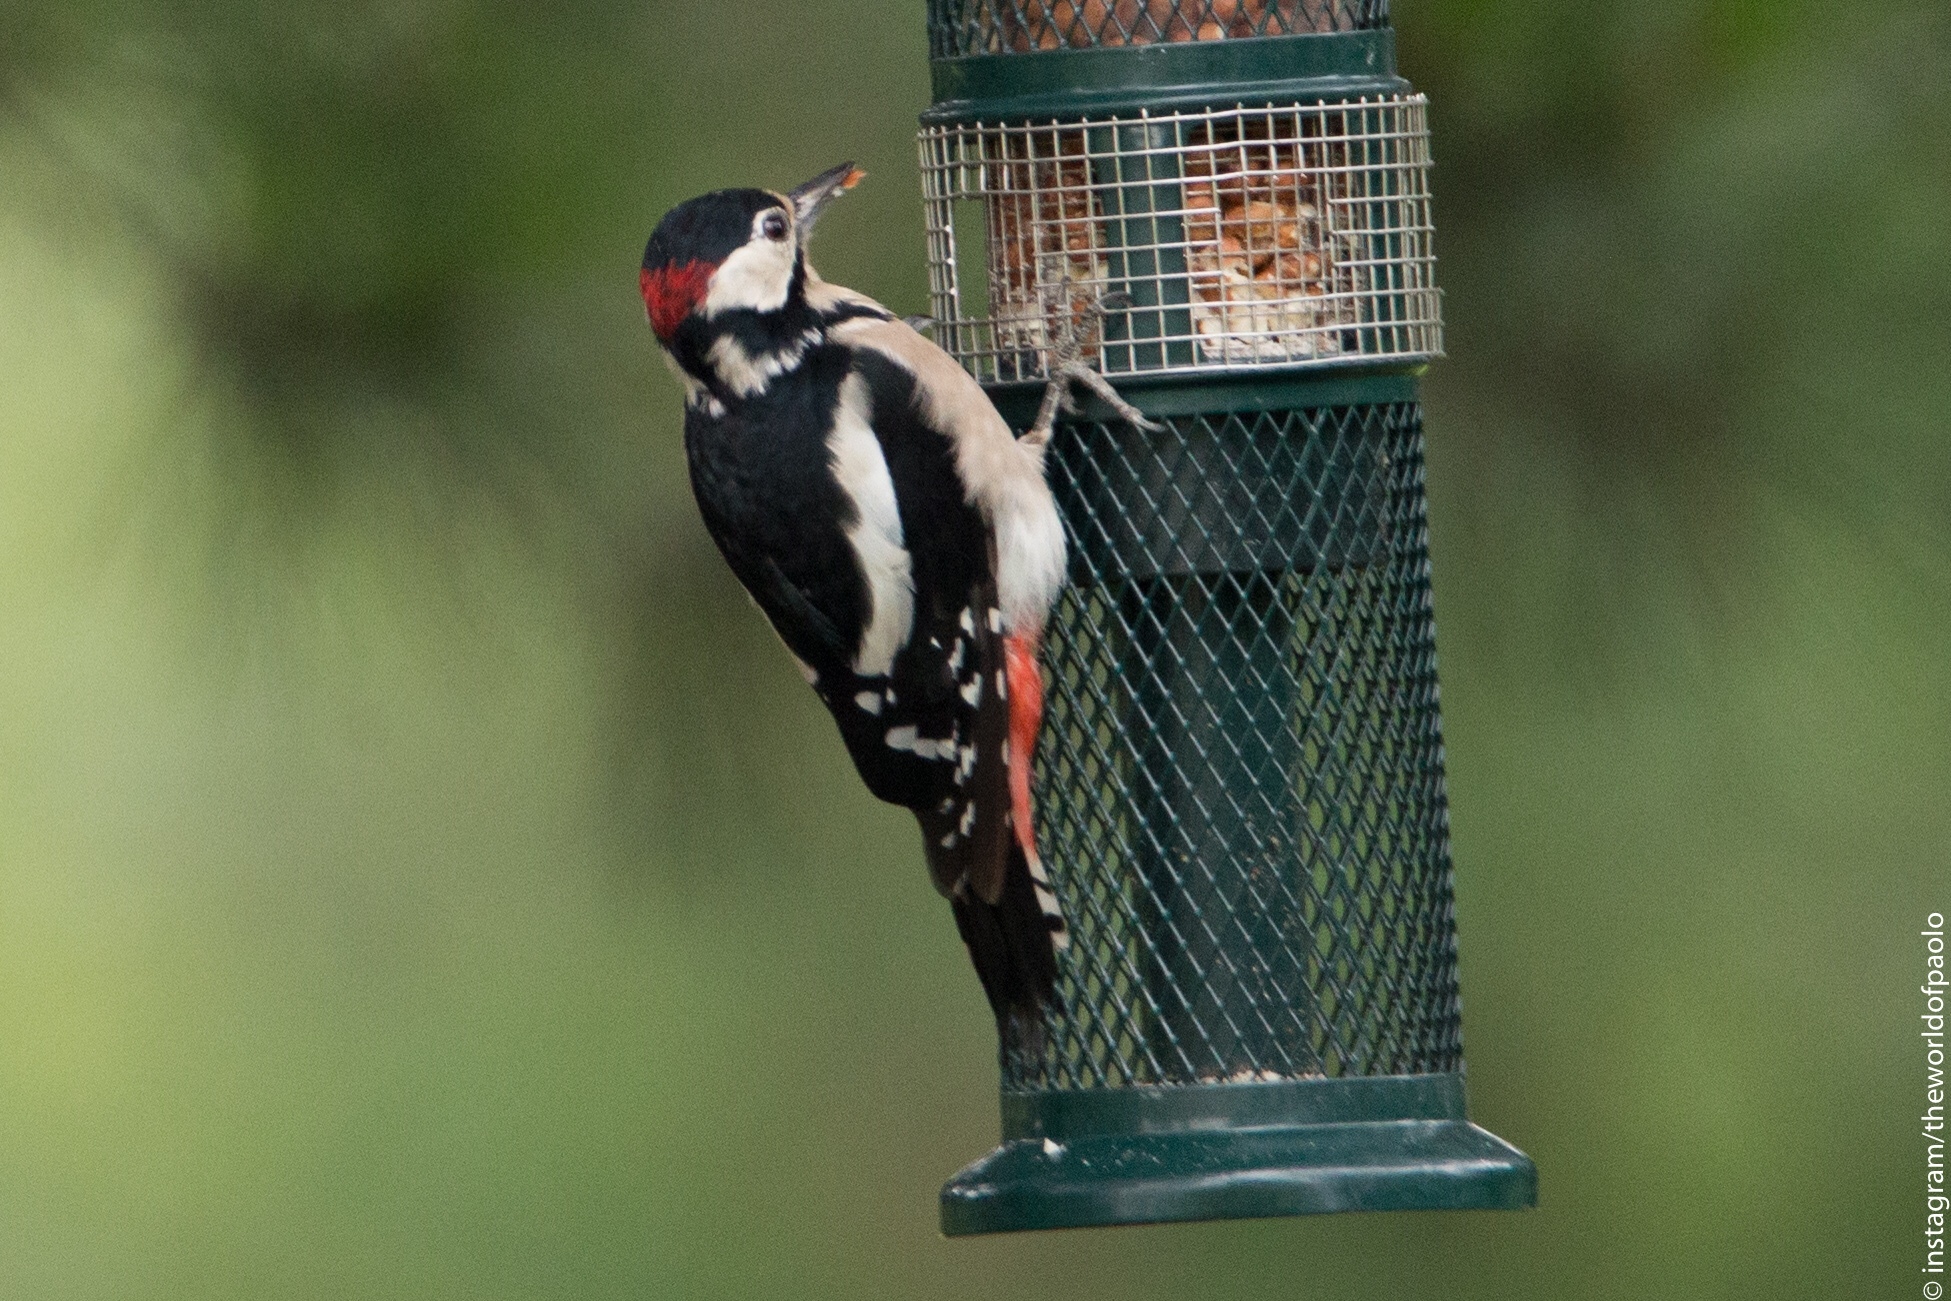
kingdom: Animalia
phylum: Chordata
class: Aves
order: Piciformes
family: Picidae
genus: Dendrocopos
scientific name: Dendrocopos major
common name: Great spotted woodpecker
